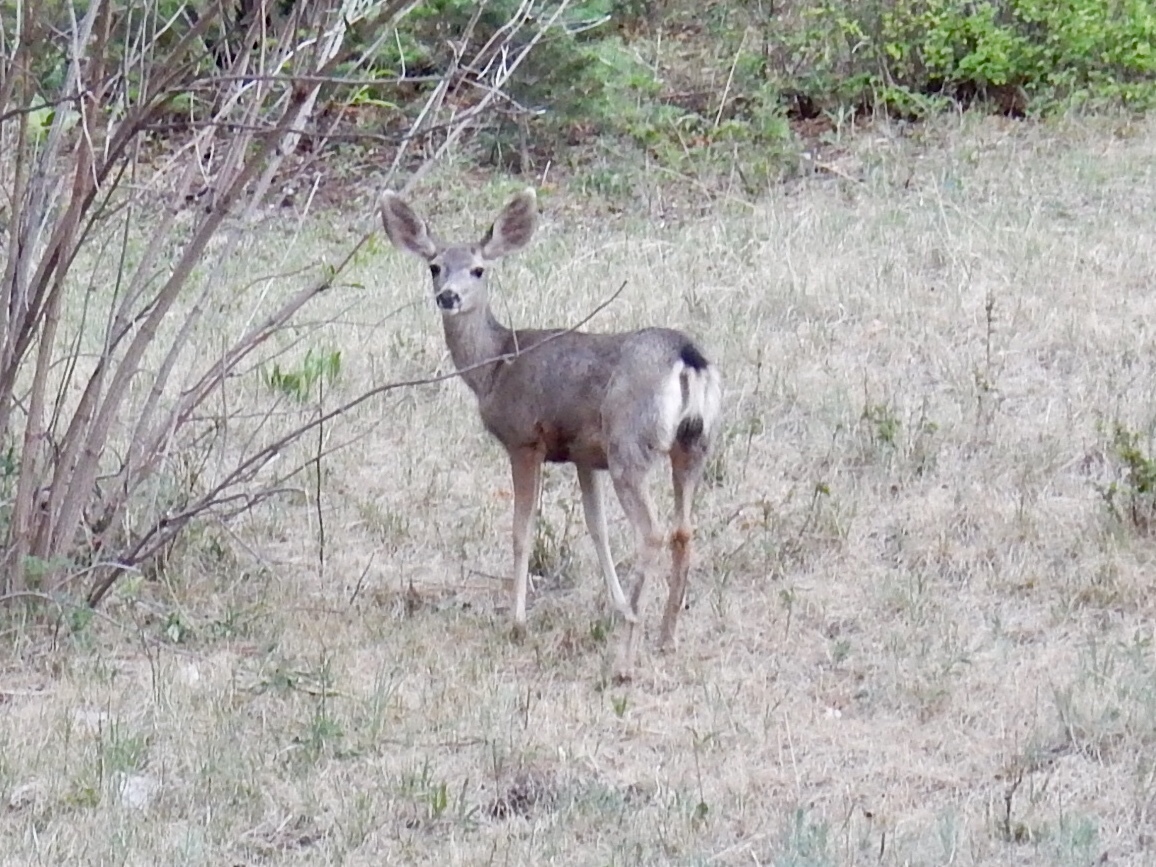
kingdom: Animalia
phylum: Chordata
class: Mammalia
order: Artiodactyla
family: Cervidae
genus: Odocoileus
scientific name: Odocoileus hemionus
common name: Mule deer
